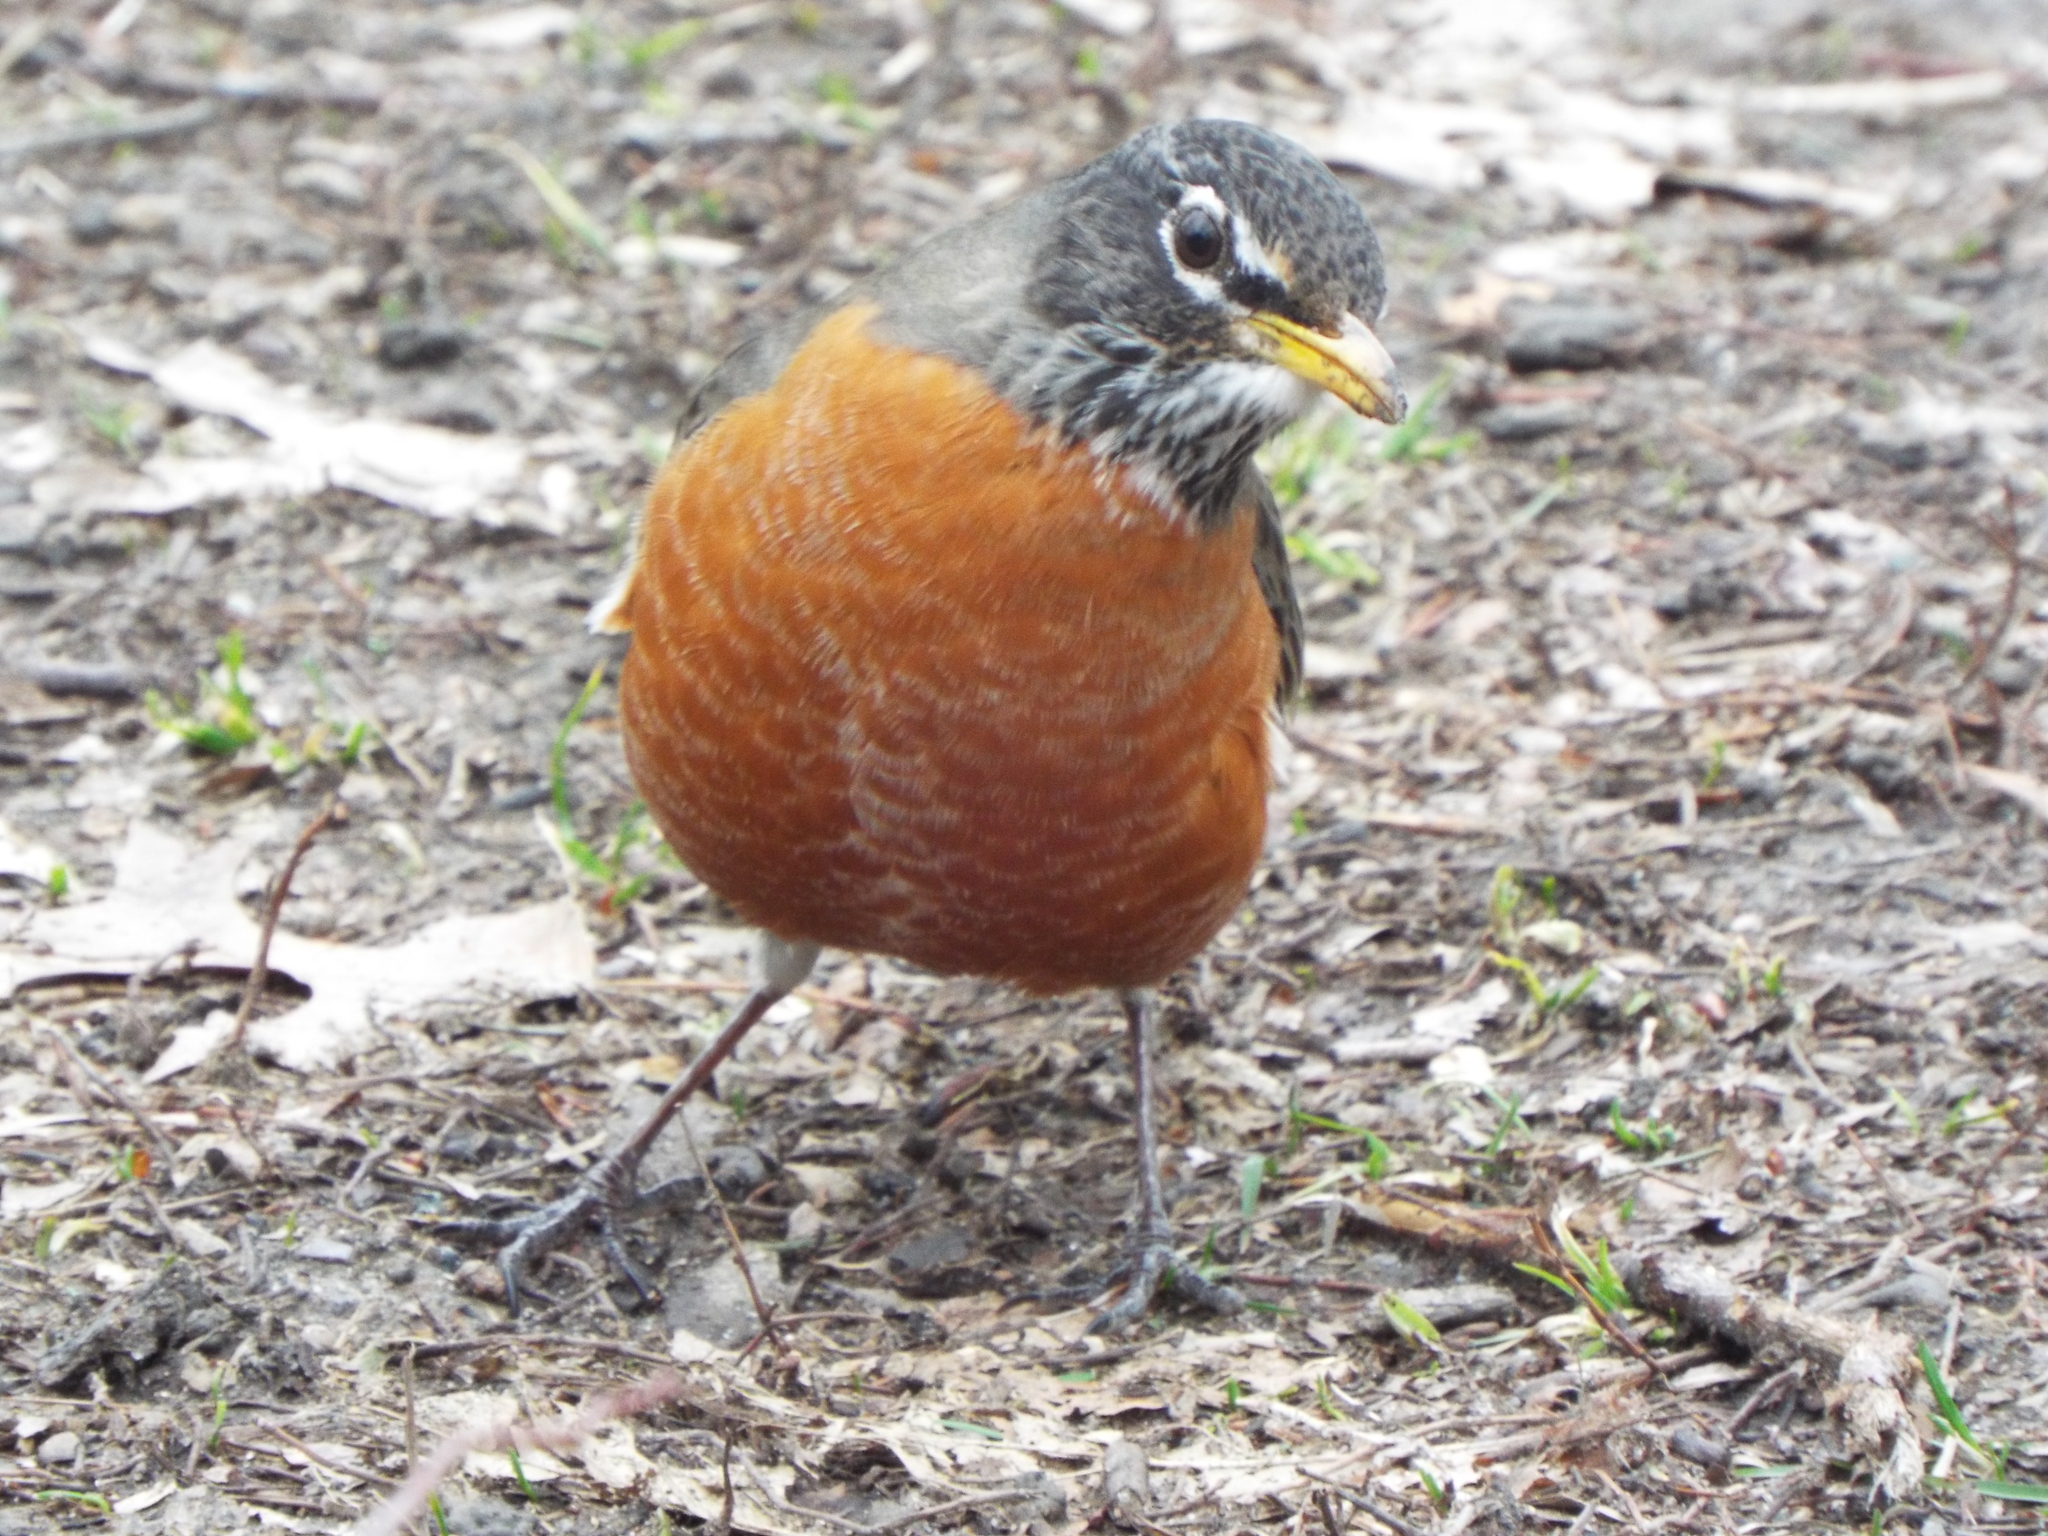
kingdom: Animalia
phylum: Chordata
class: Aves
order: Passeriformes
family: Turdidae
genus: Turdus
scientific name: Turdus migratorius
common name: American robin
